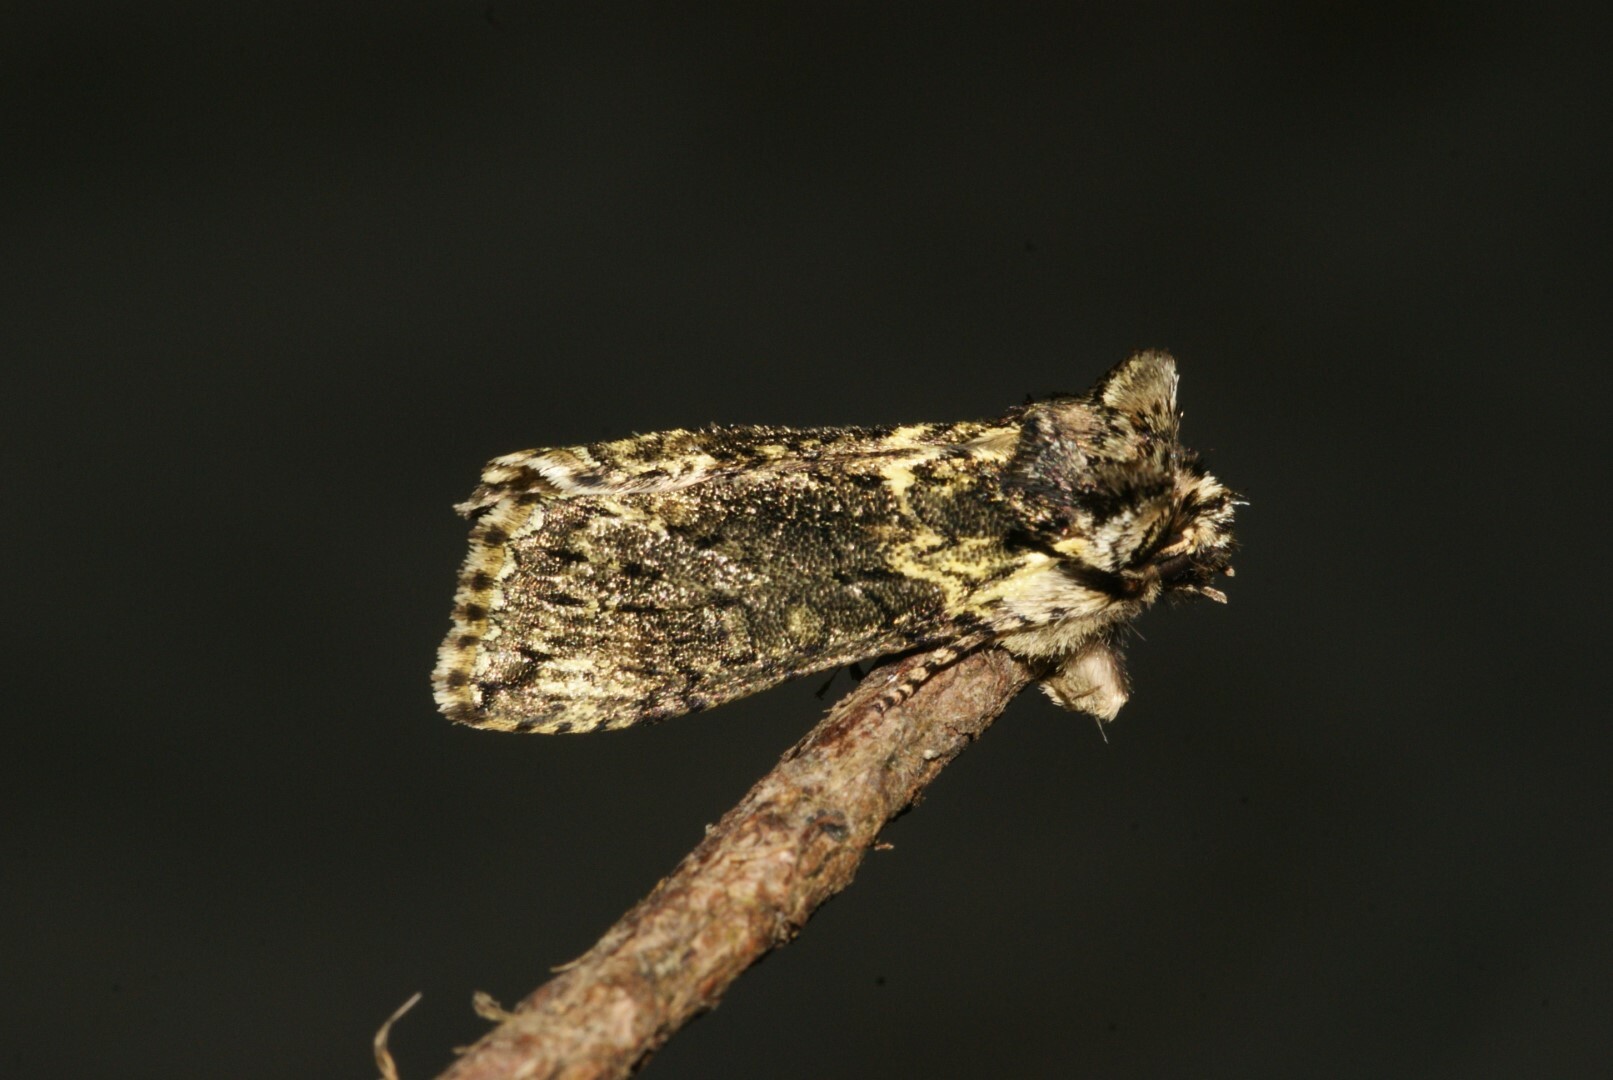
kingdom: Animalia
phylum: Arthropoda
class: Insecta
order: Lepidoptera
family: Drepanidae
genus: Polyploca
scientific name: Polyploca ridens
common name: Frosted green
